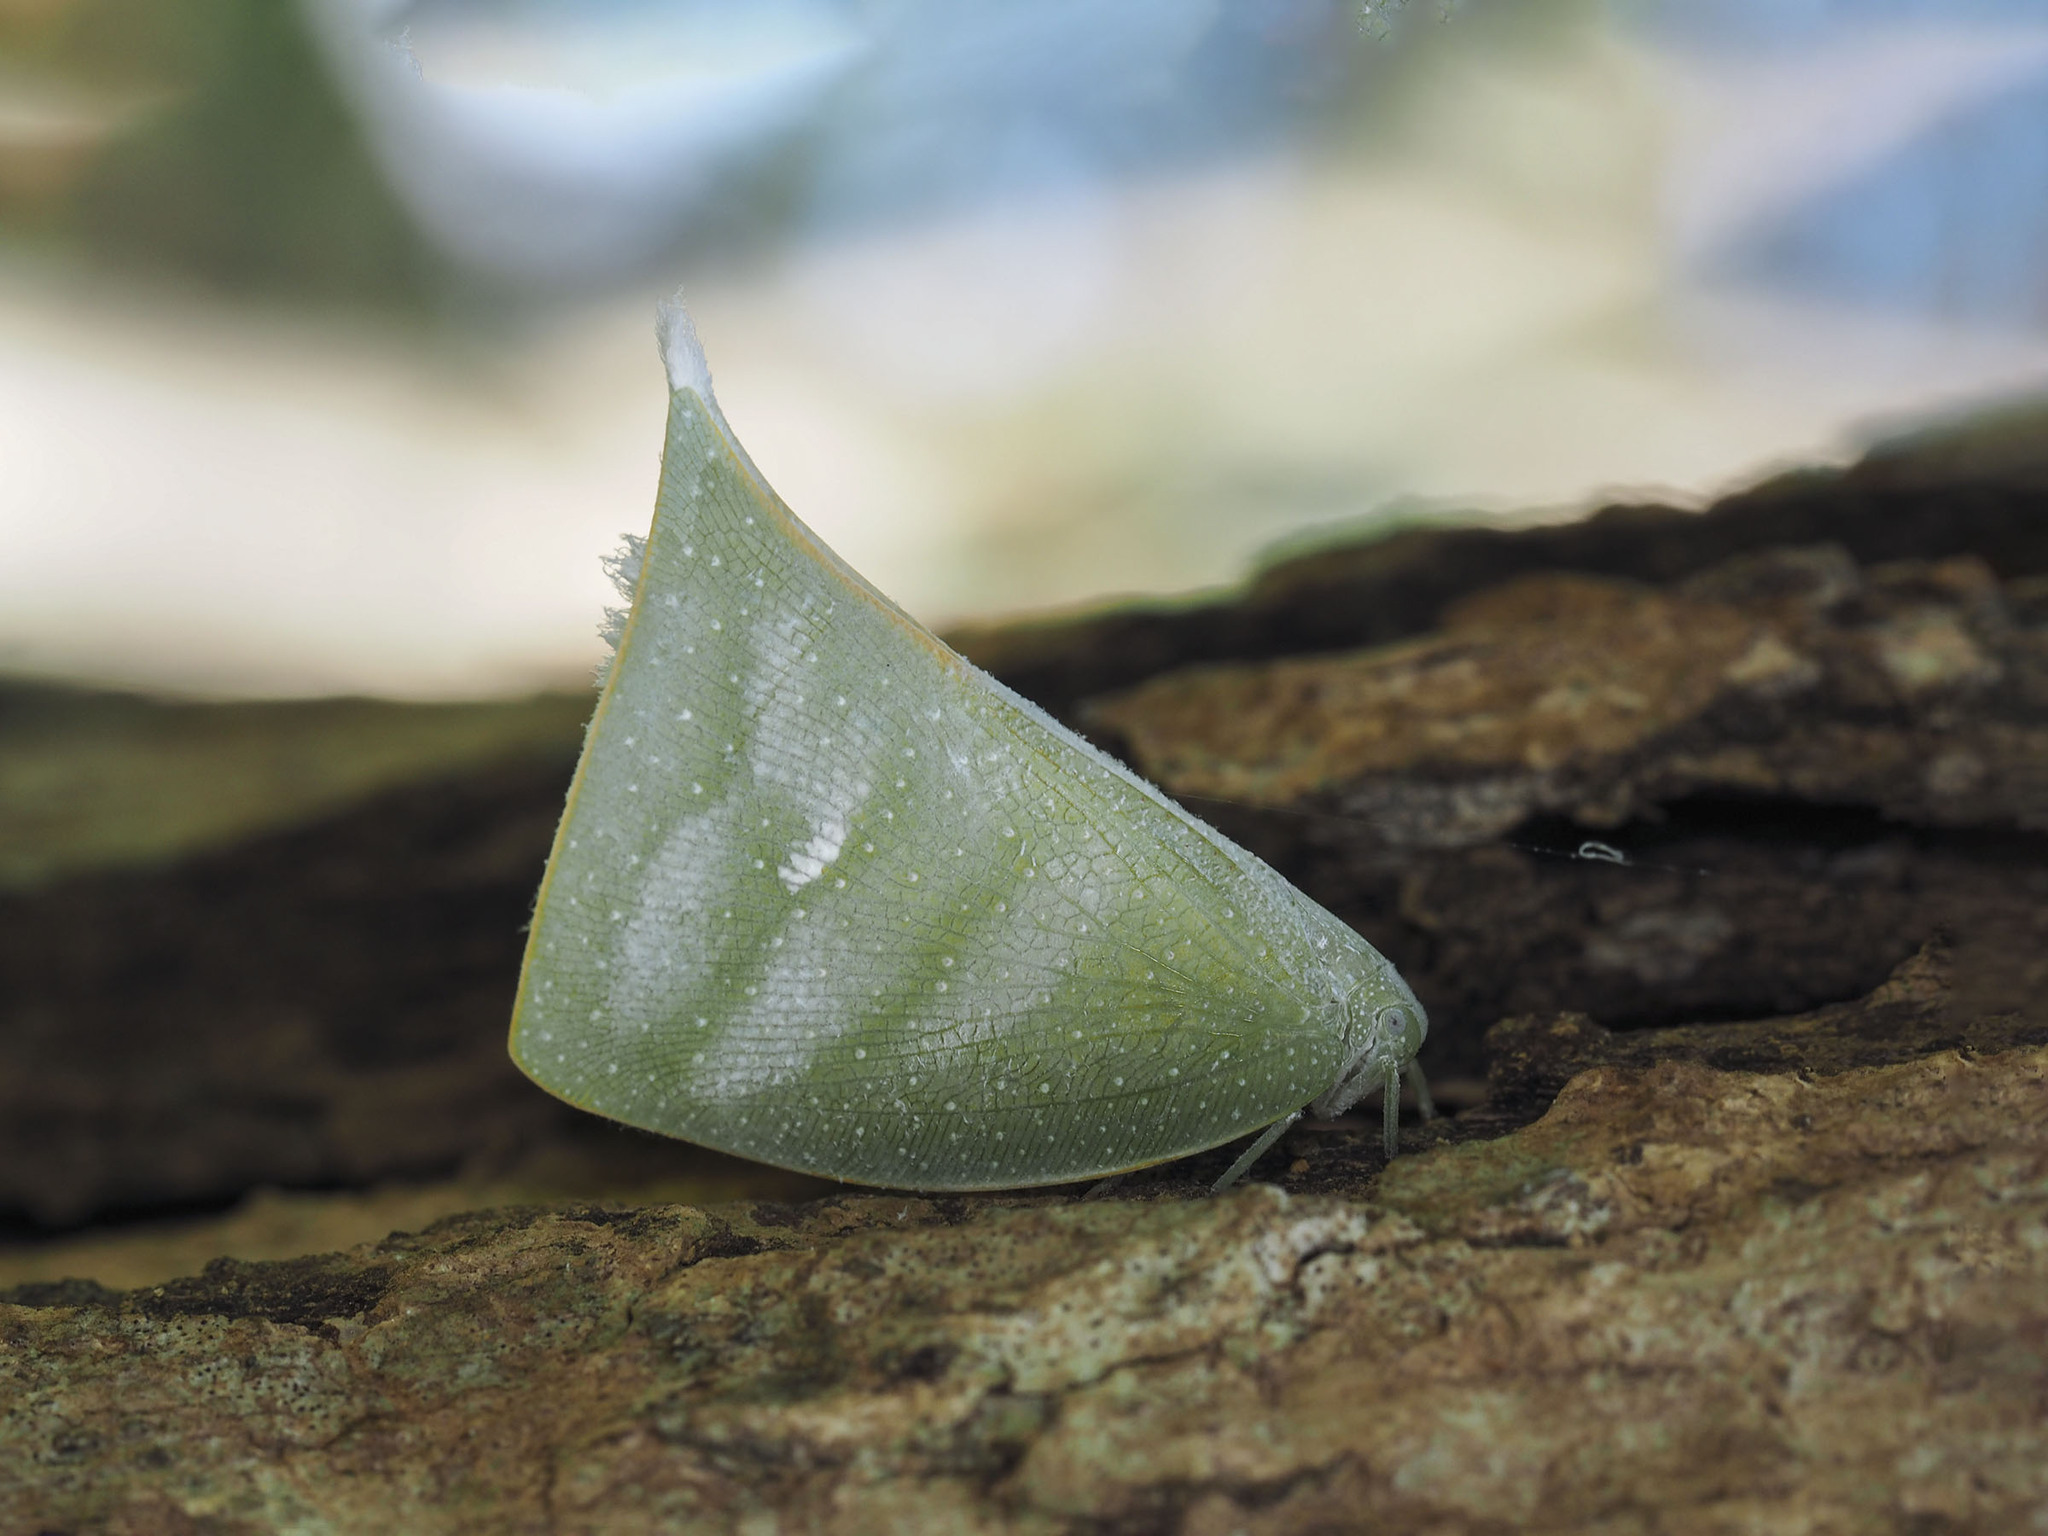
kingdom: Animalia
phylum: Arthropoda
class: Insecta
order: Hemiptera
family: Flatidae
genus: Colobesthes
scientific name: Colobesthes falcata
